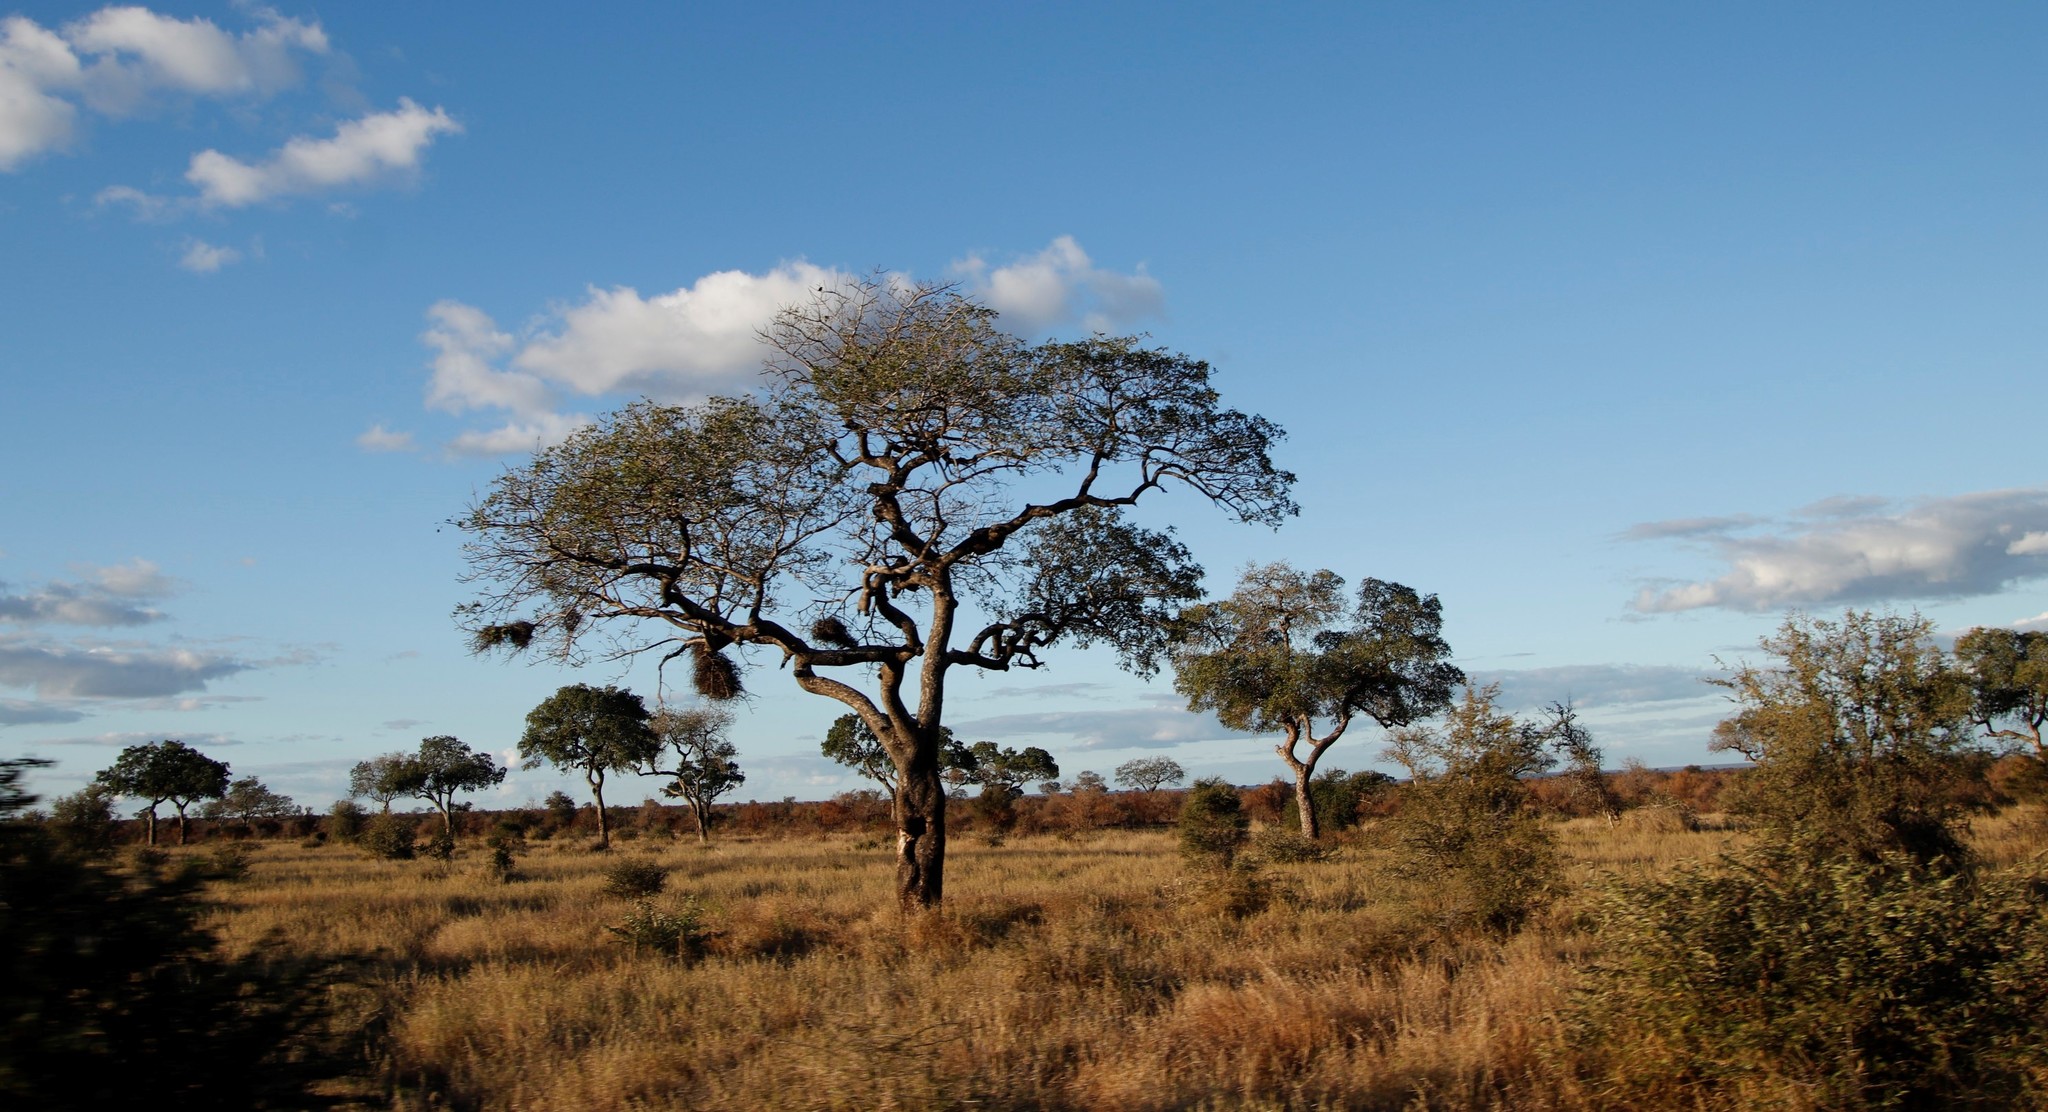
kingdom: Plantae
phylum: Tracheophyta
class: Magnoliopsida
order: Sapindales
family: Anacardiaceae
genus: Sclerocarya
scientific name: Sclerocarya birrea
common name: Marula
